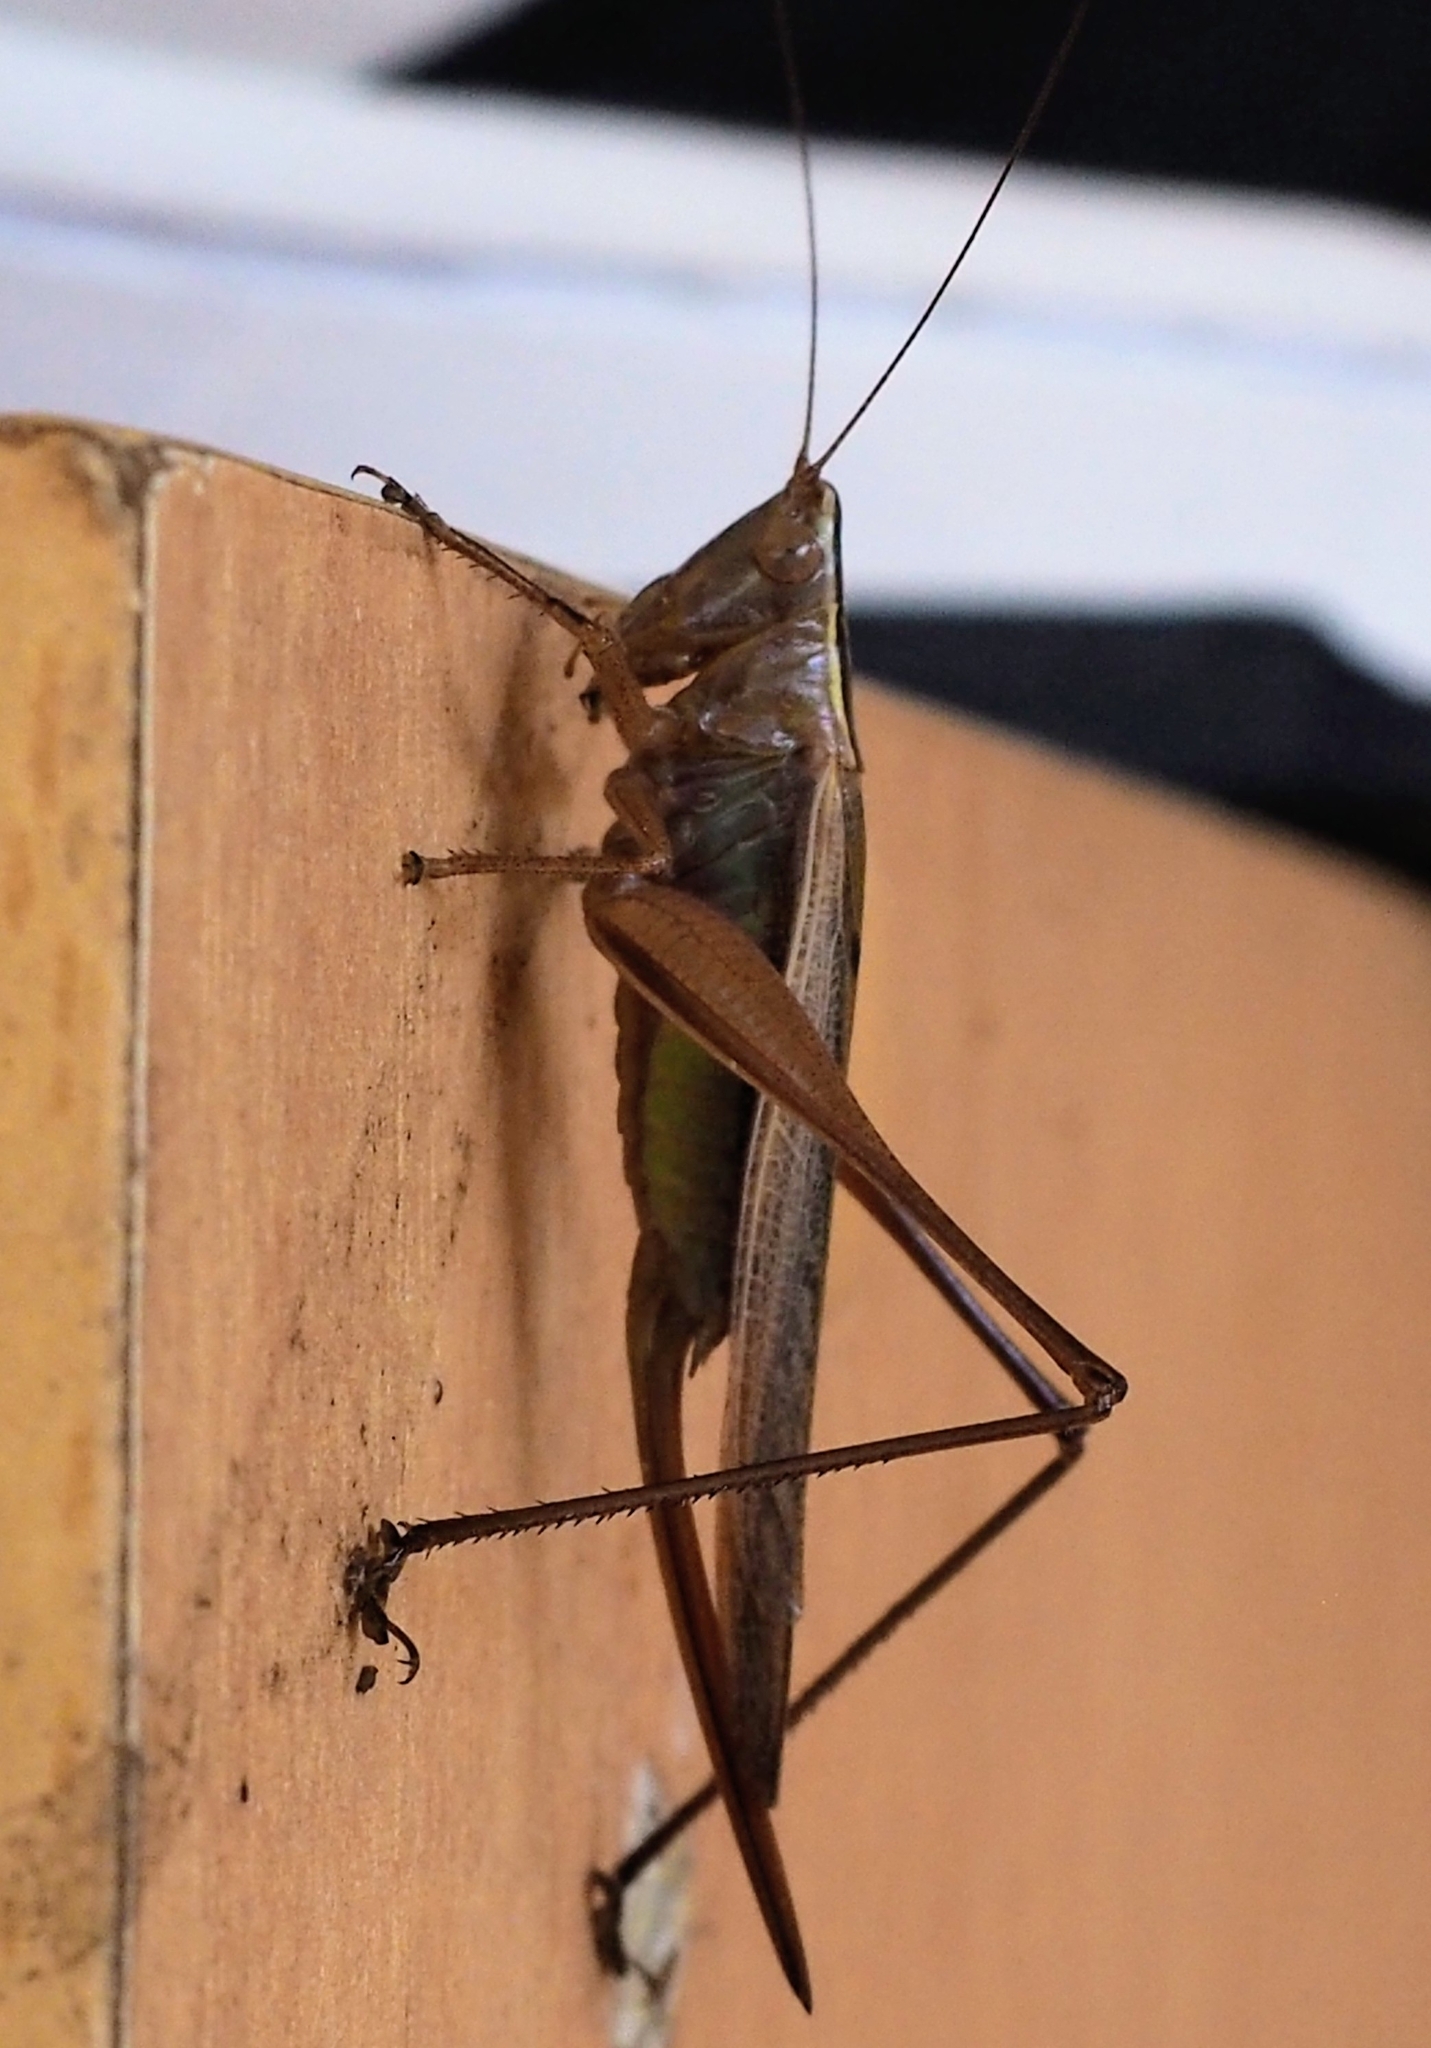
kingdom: Animalia
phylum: Arthropoda
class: Insecta
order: Orthoptera
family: Tettigoniidae
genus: Conocephalus
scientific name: Conocephalus albescens
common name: Whitish meadow katydid
